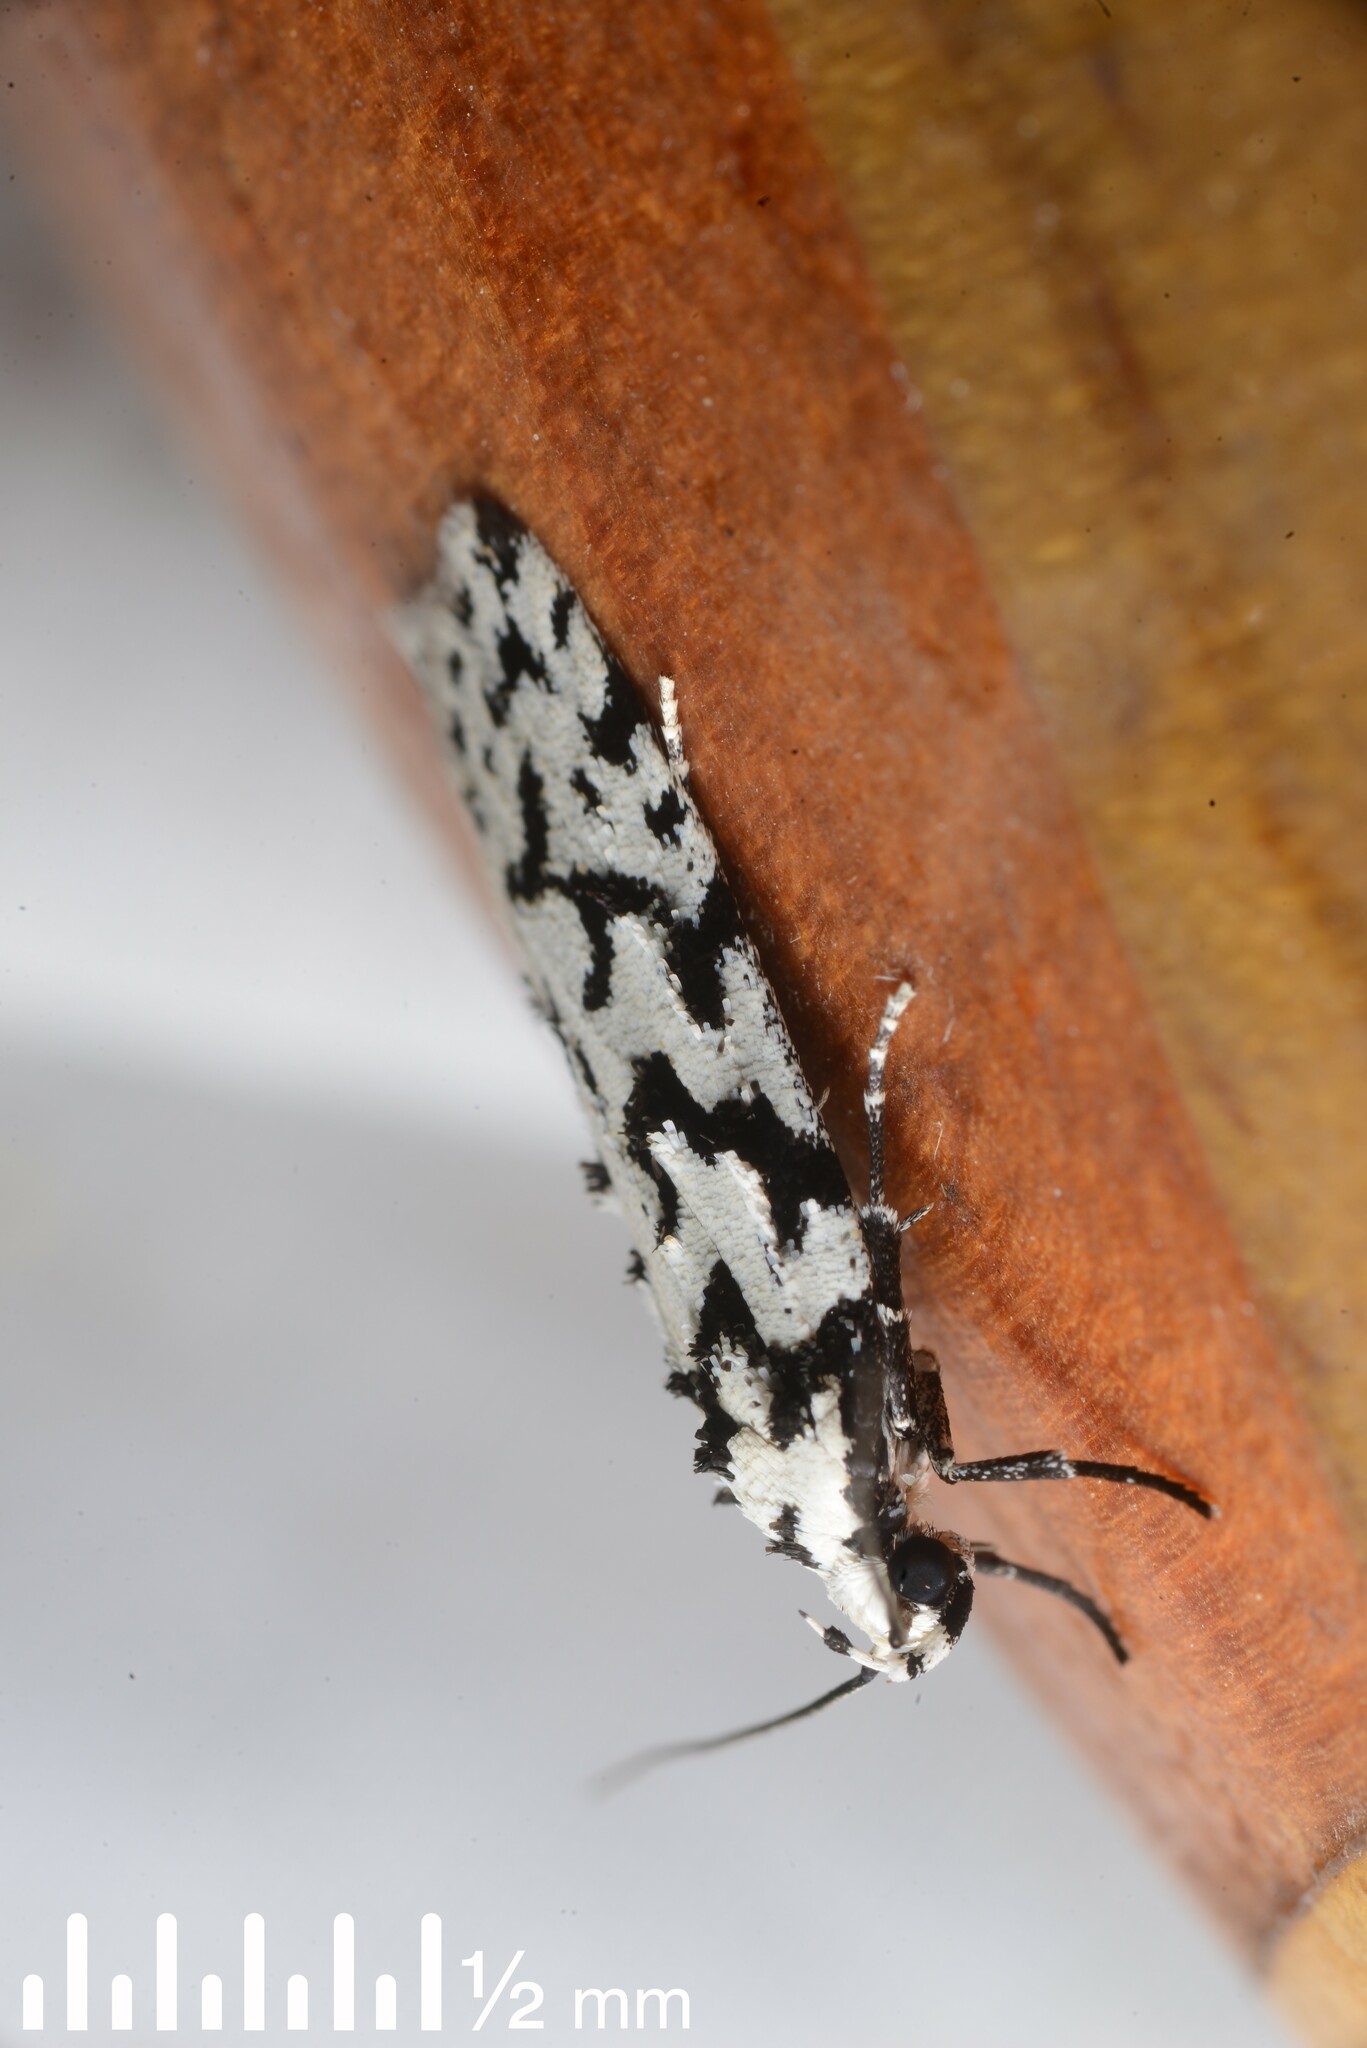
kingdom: Animalia
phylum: Arthropoda
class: Insecta
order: Lepidoptera
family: Oecophoridae
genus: Izatha
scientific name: Izatha katadiktya
